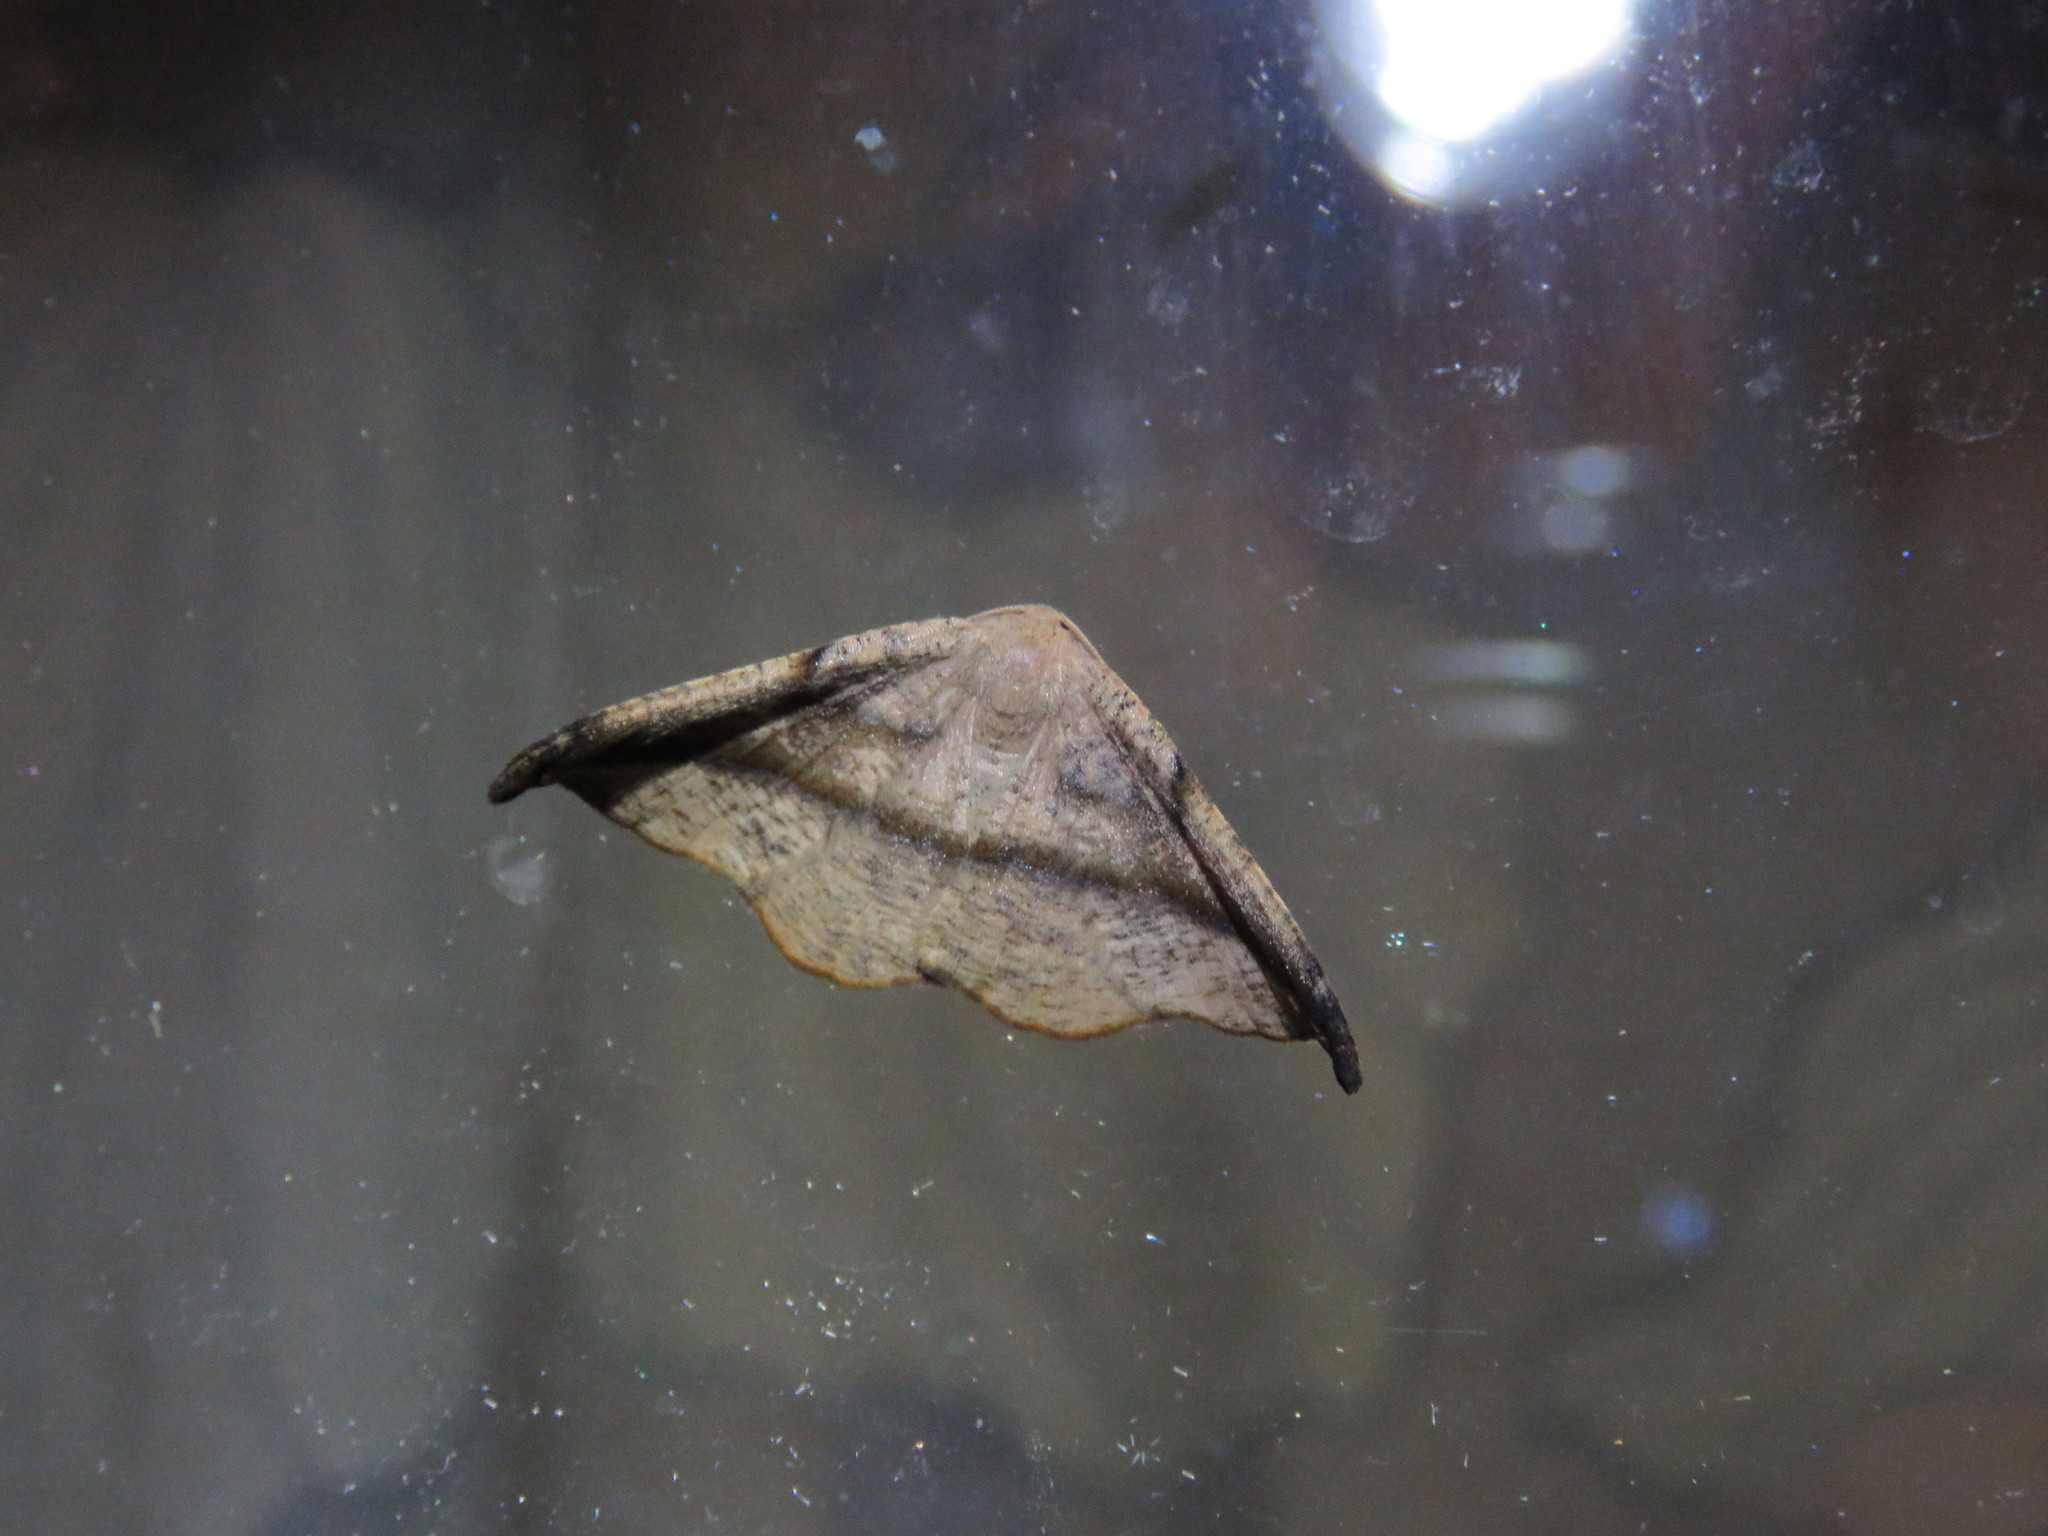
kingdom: Animalia
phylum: Arthropoda
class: Insecta
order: Lepidoptera
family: Geometridae
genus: Patalene
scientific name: Patalene olyzonaria
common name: Juniper geometer moth
